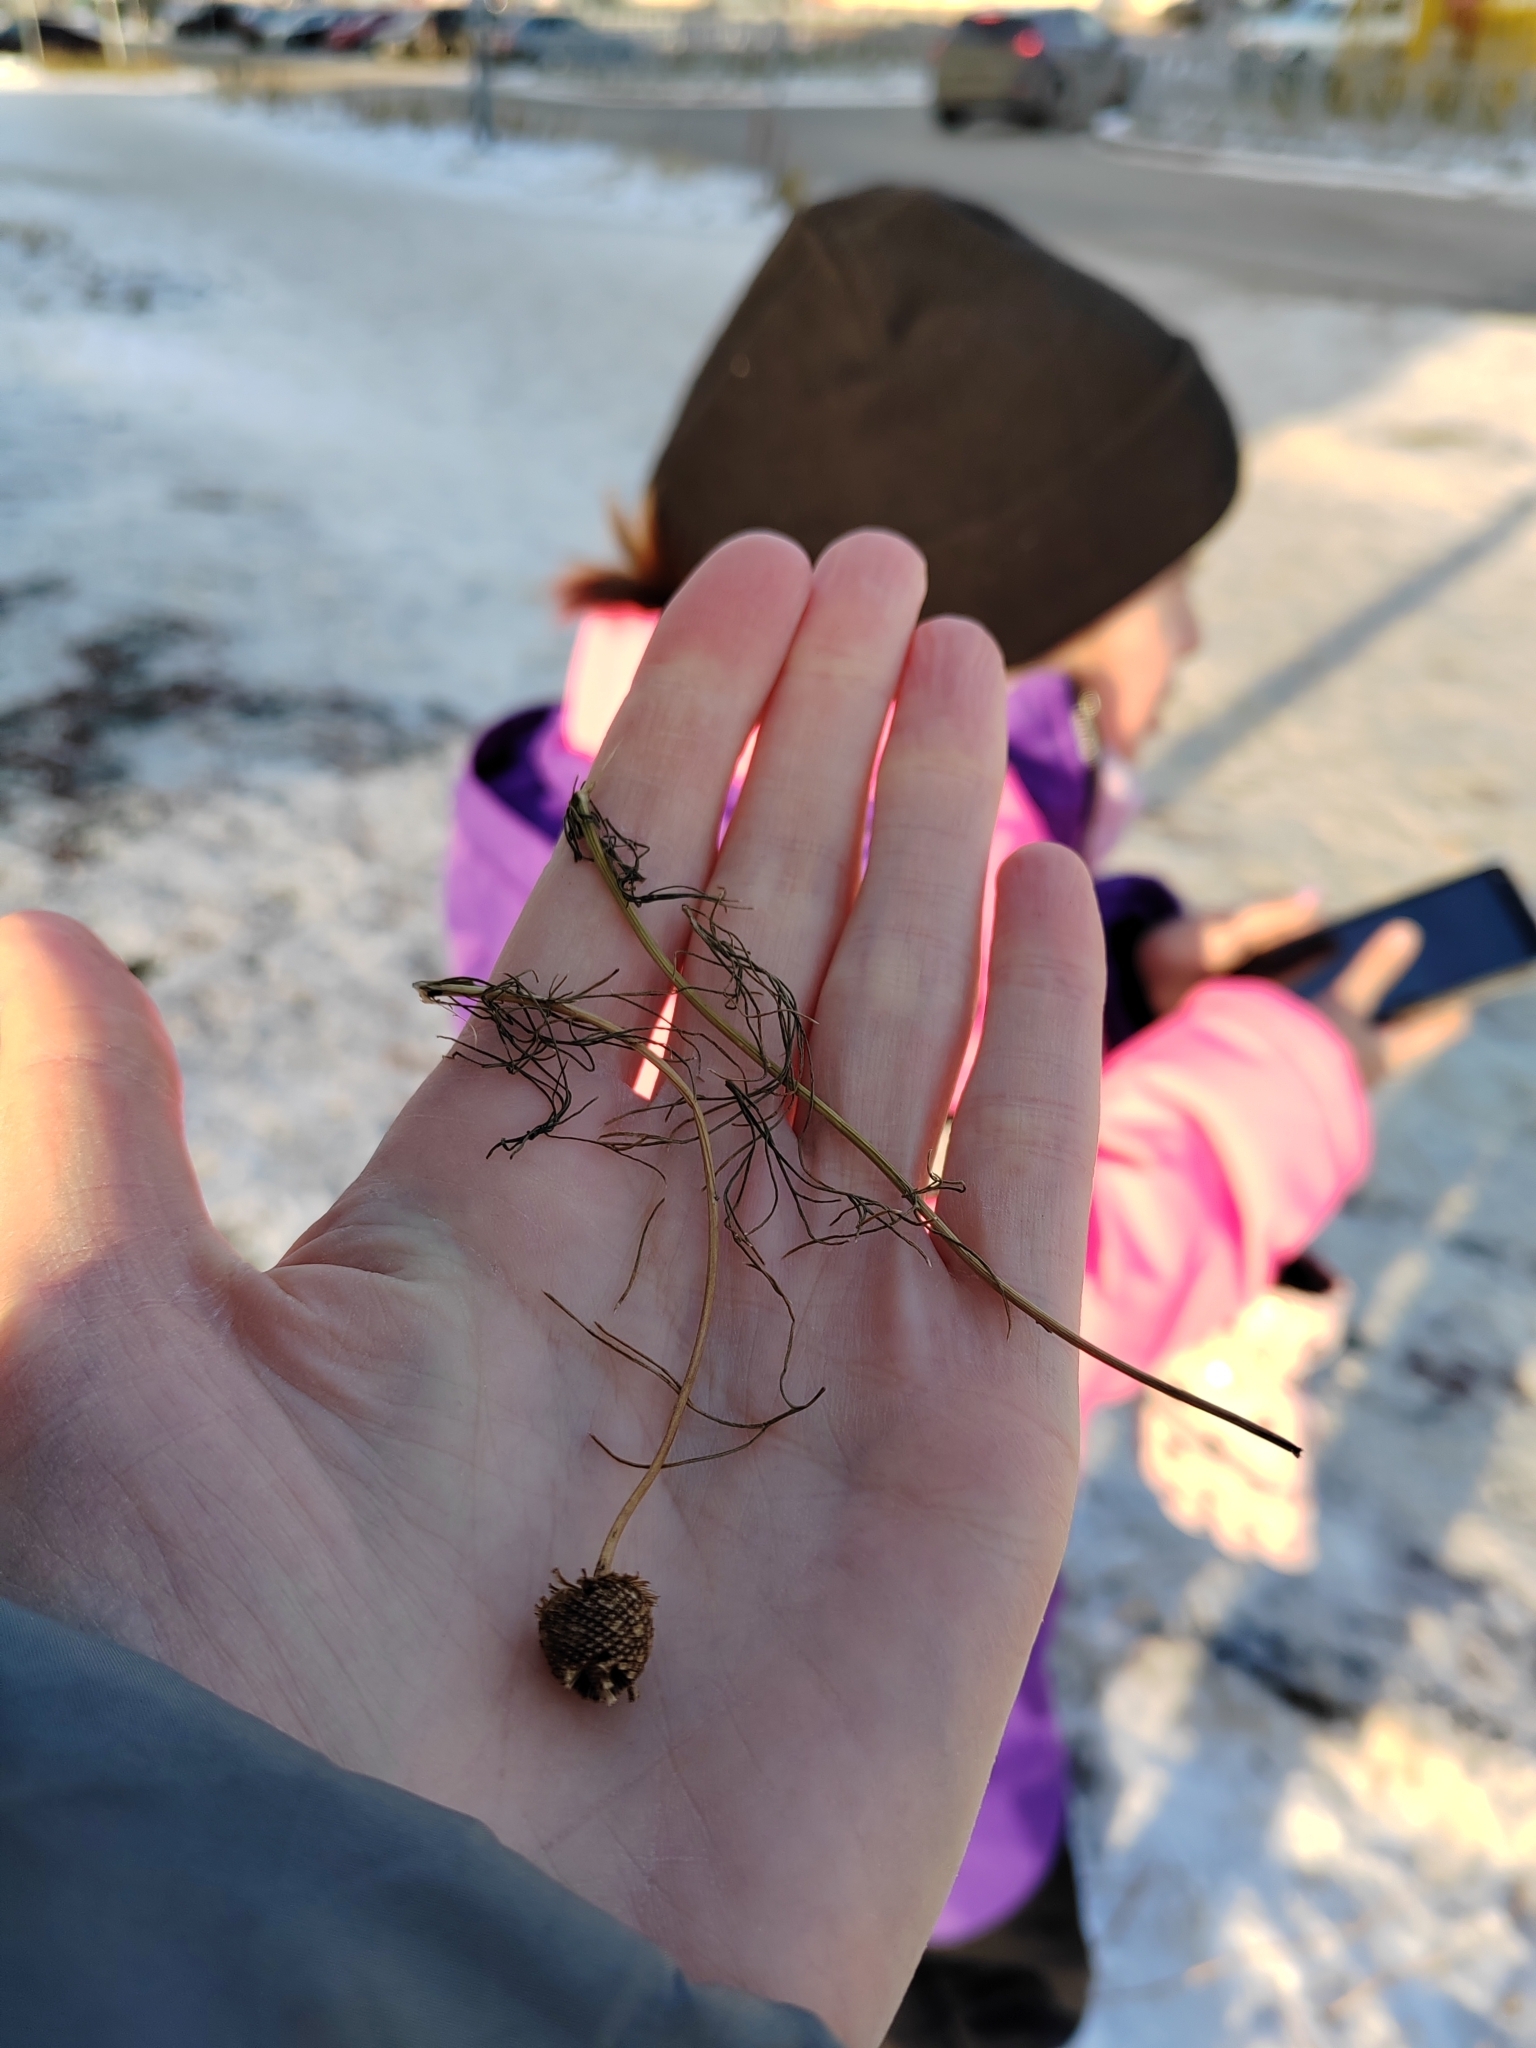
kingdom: Plantae
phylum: Tracheophyta
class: Magnoliopsida
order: Asterales
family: Asteraceae
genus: Tripleurospermum
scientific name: Tripleurospermum inodorum
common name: Scentless mayweed
